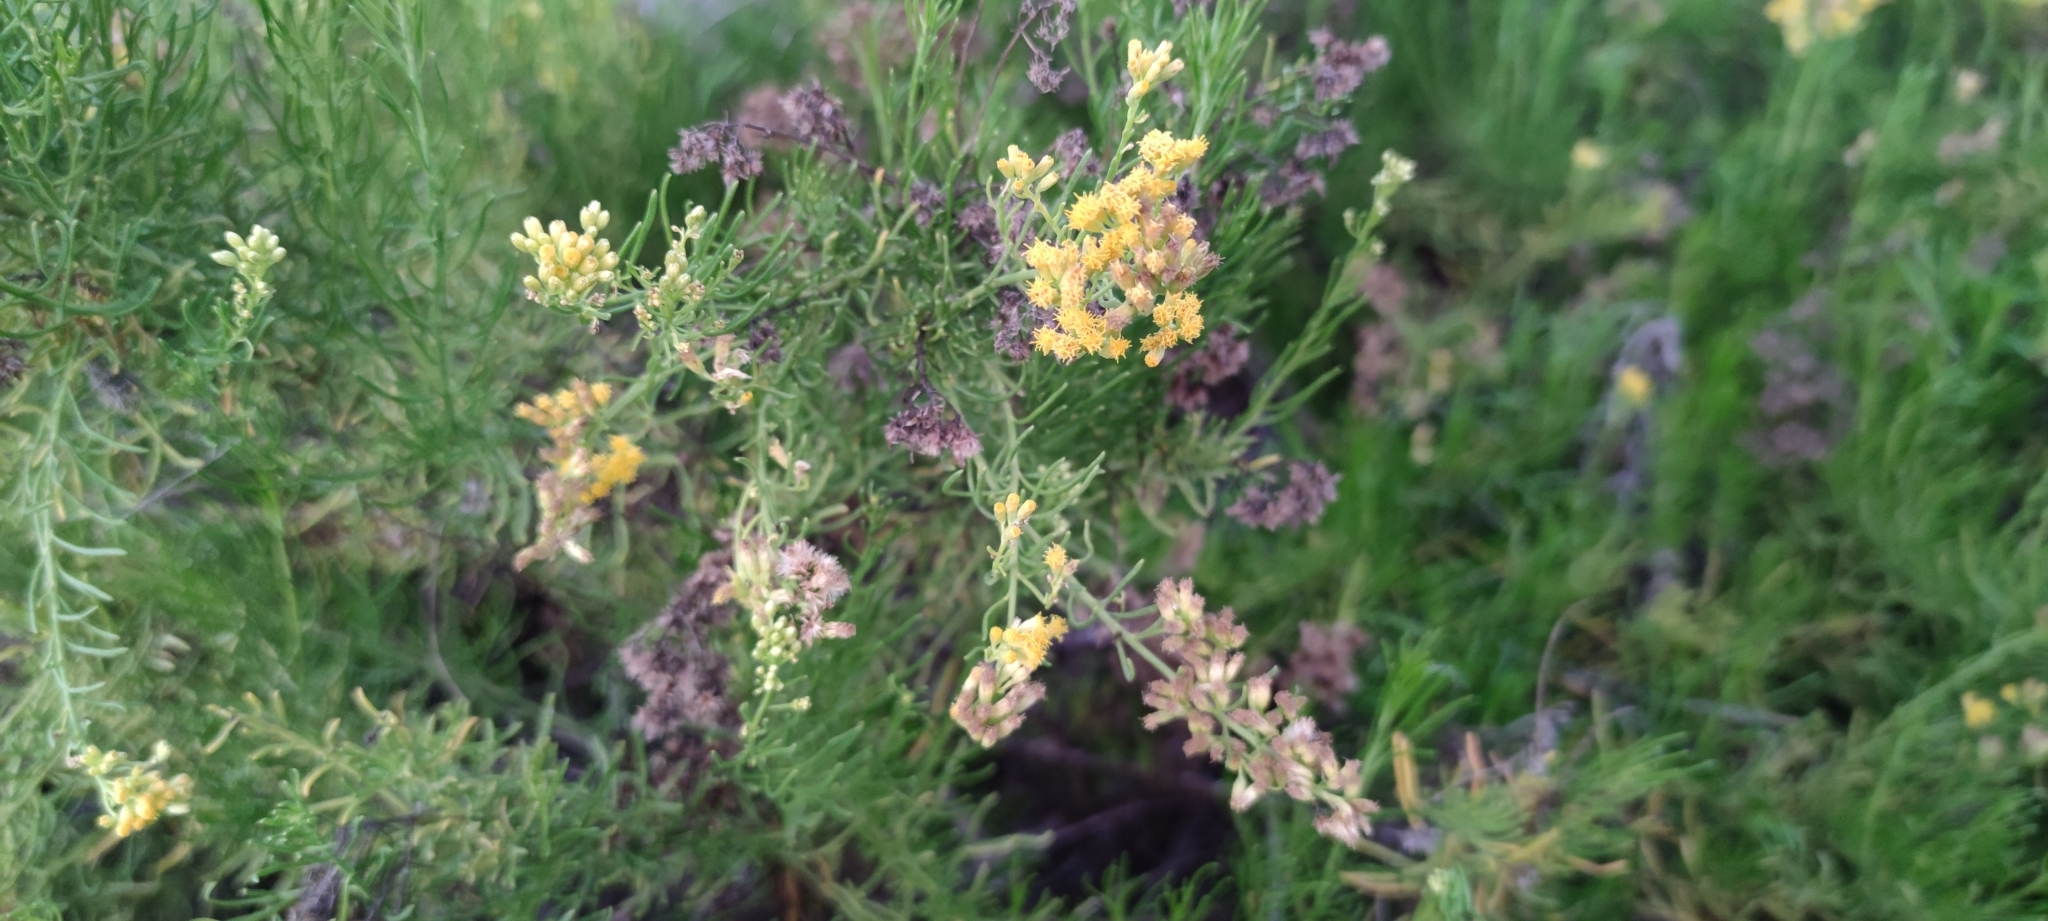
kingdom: Plantae
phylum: Tracheophyta
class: Magnoliopsida
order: Asterales
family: Asteraceae
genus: Schizogyne
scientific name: Schizogyne glaberrima
